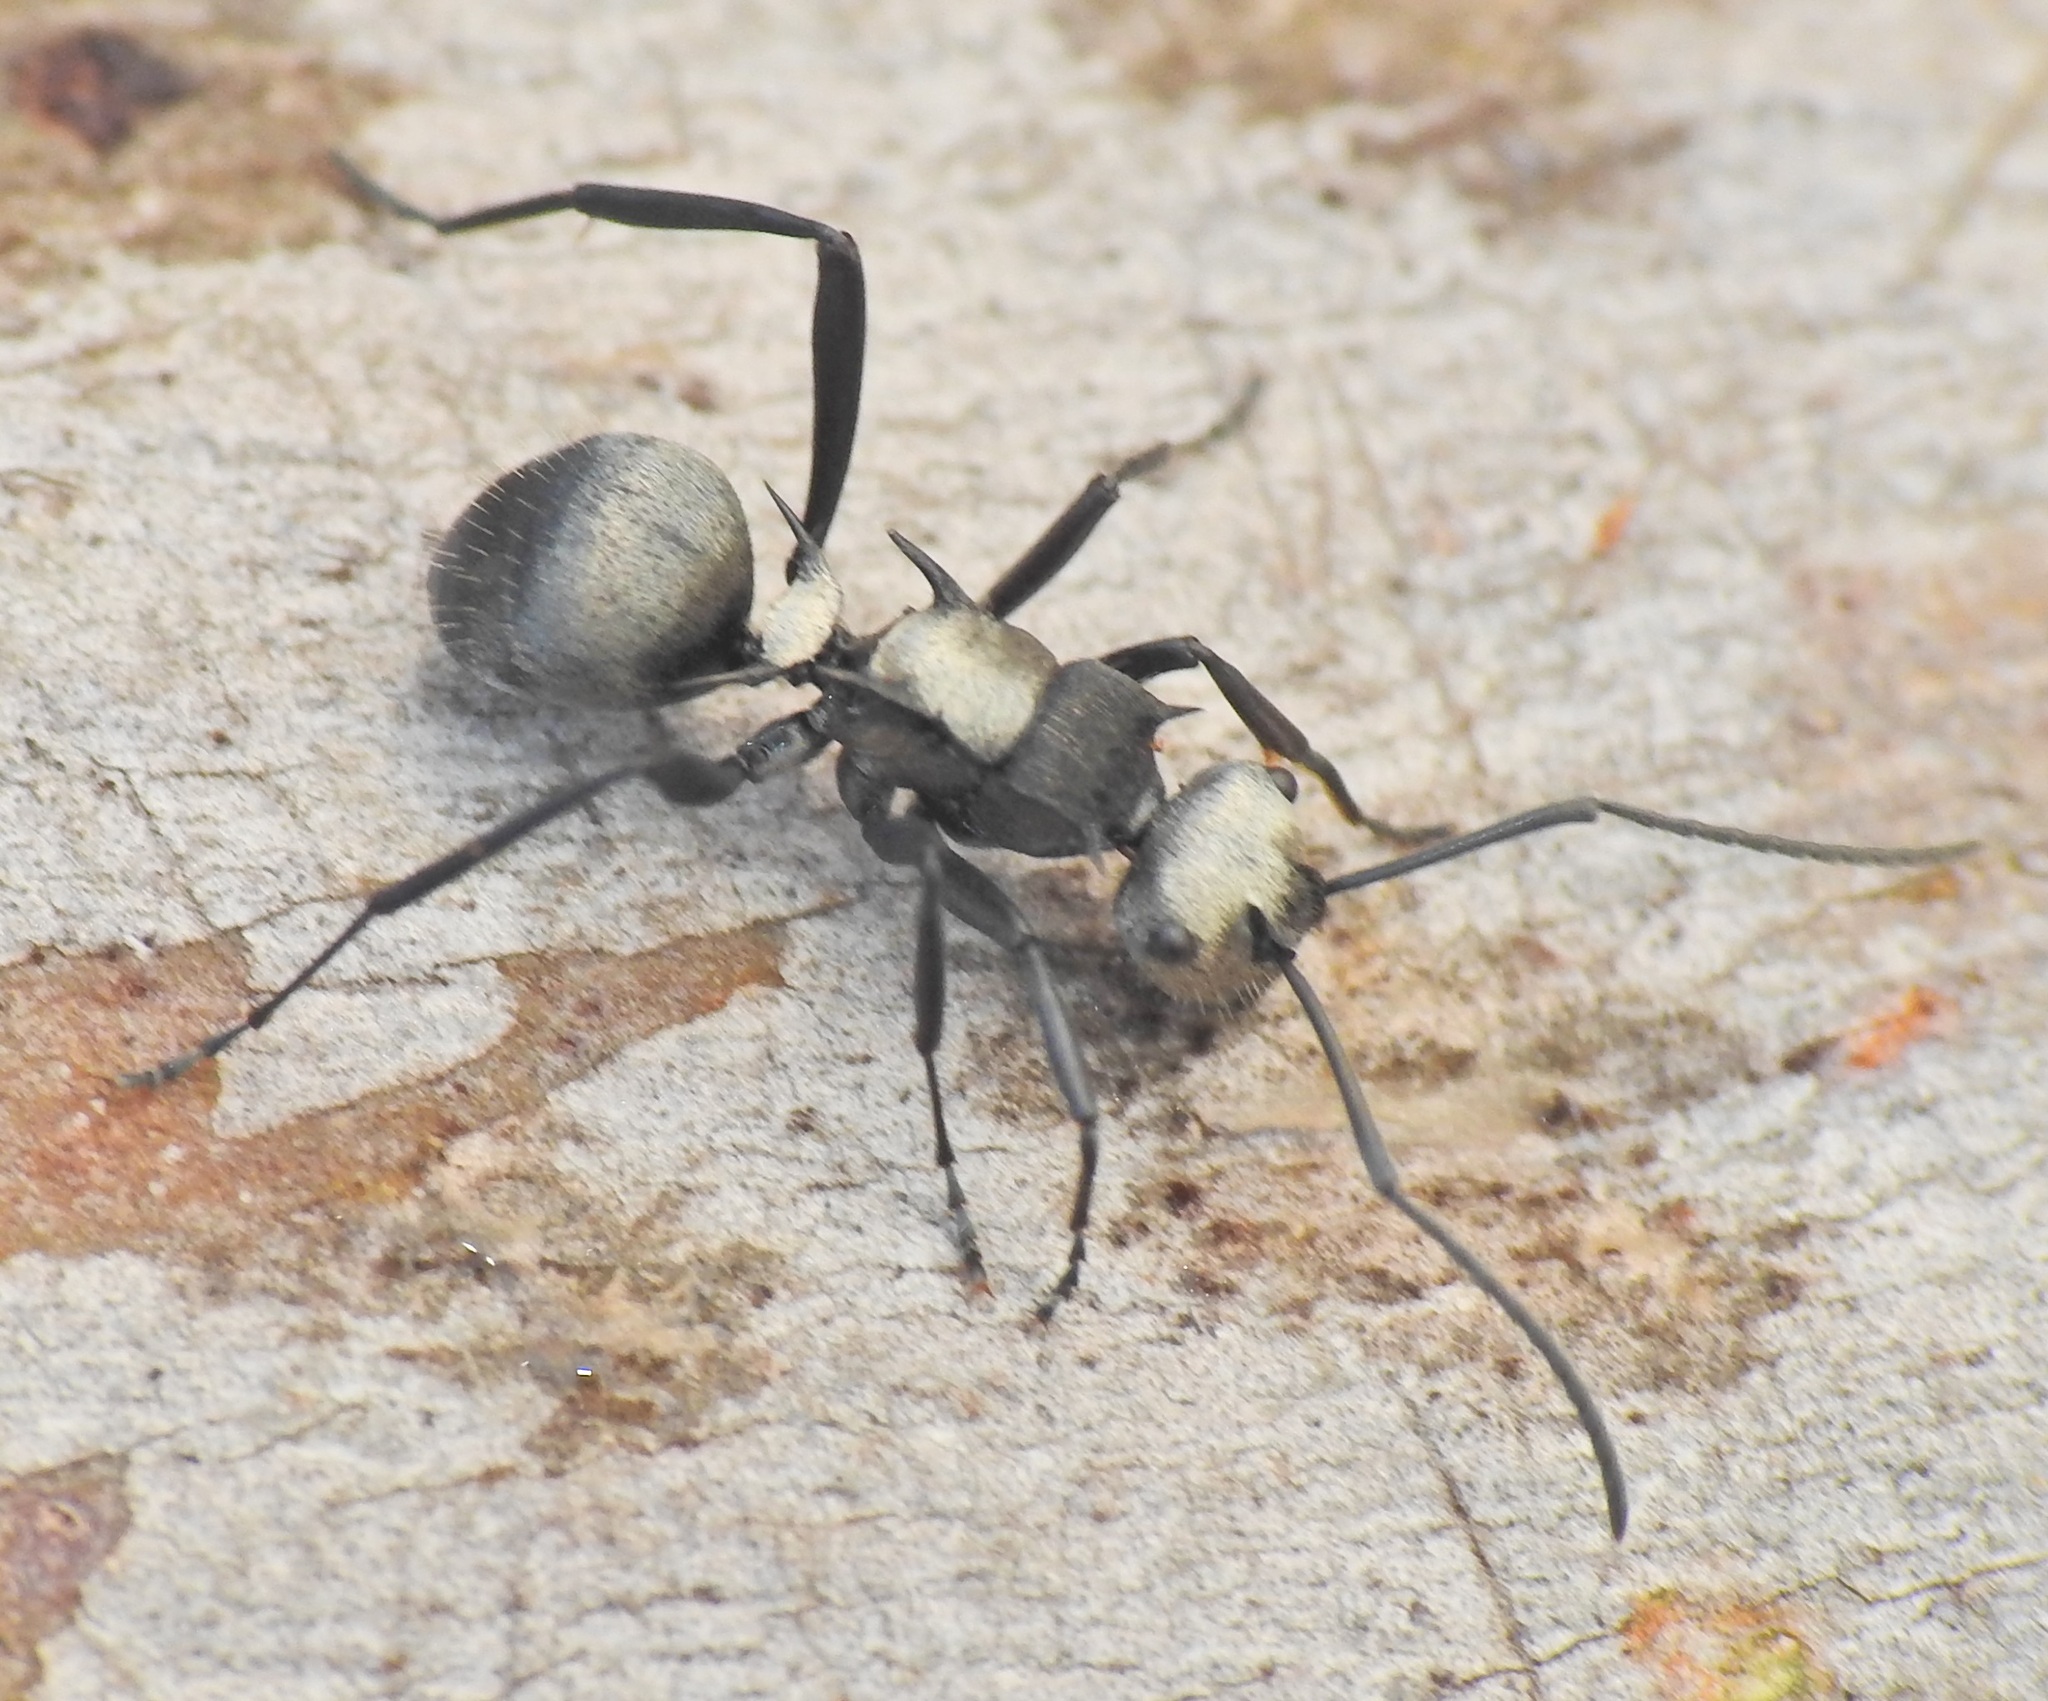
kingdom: Animalia
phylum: Arthropoda
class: Insecta
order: Hymenoptera
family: Formicidae
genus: Polyrhachis
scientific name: Polyrhachis daemeli
